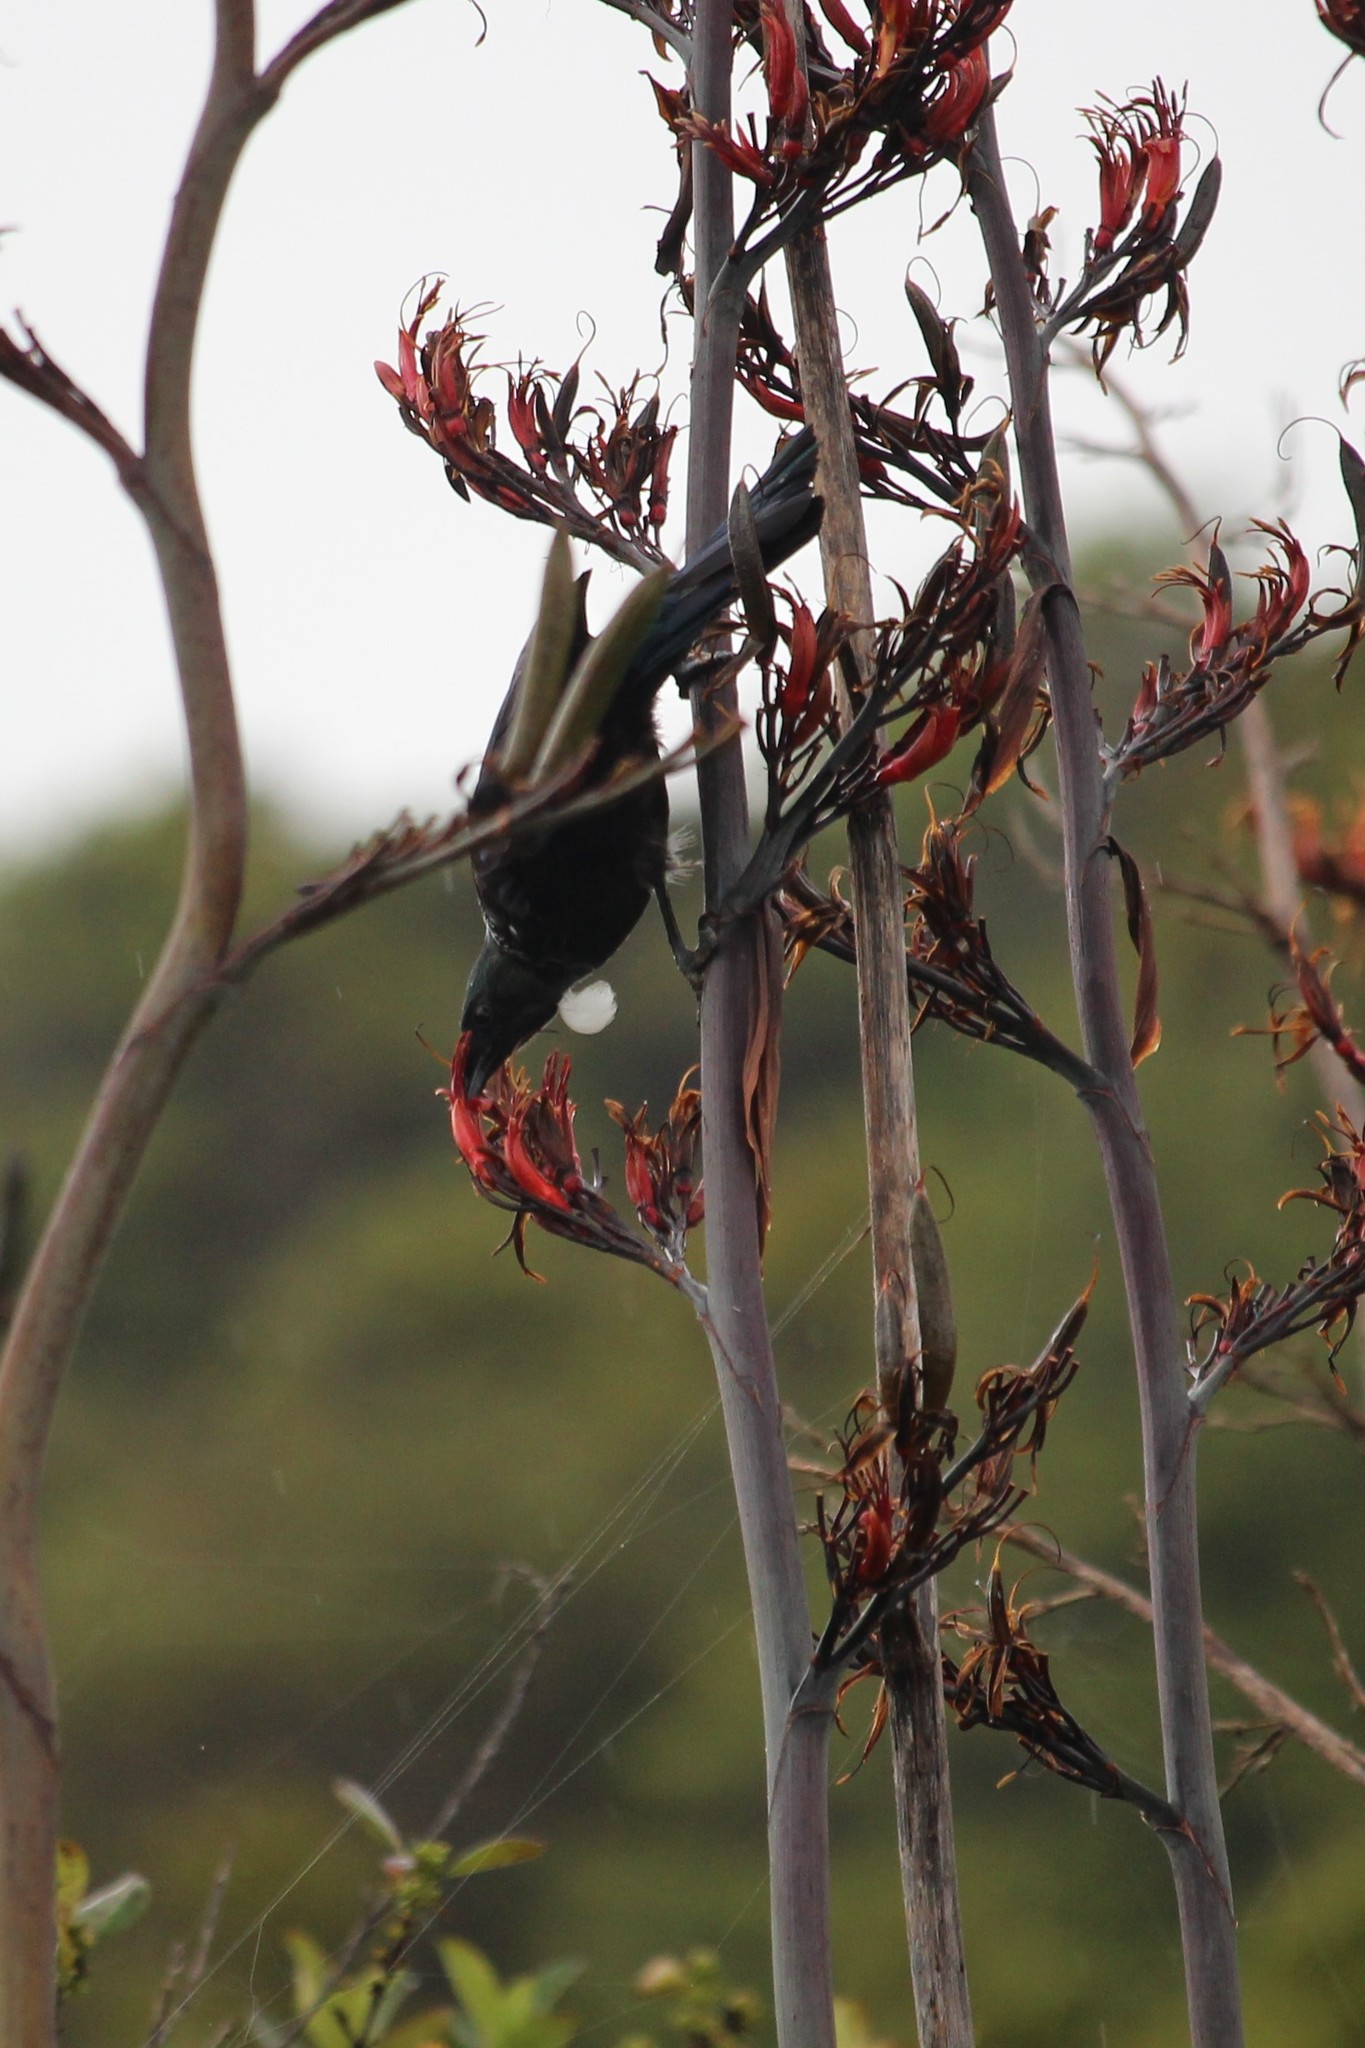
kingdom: Animalia
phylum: Chordata
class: Aves
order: Passeriformes
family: Meliphagidae
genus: Prosthemadera
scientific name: Prosthemadera novaeseelandiae
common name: Tui
